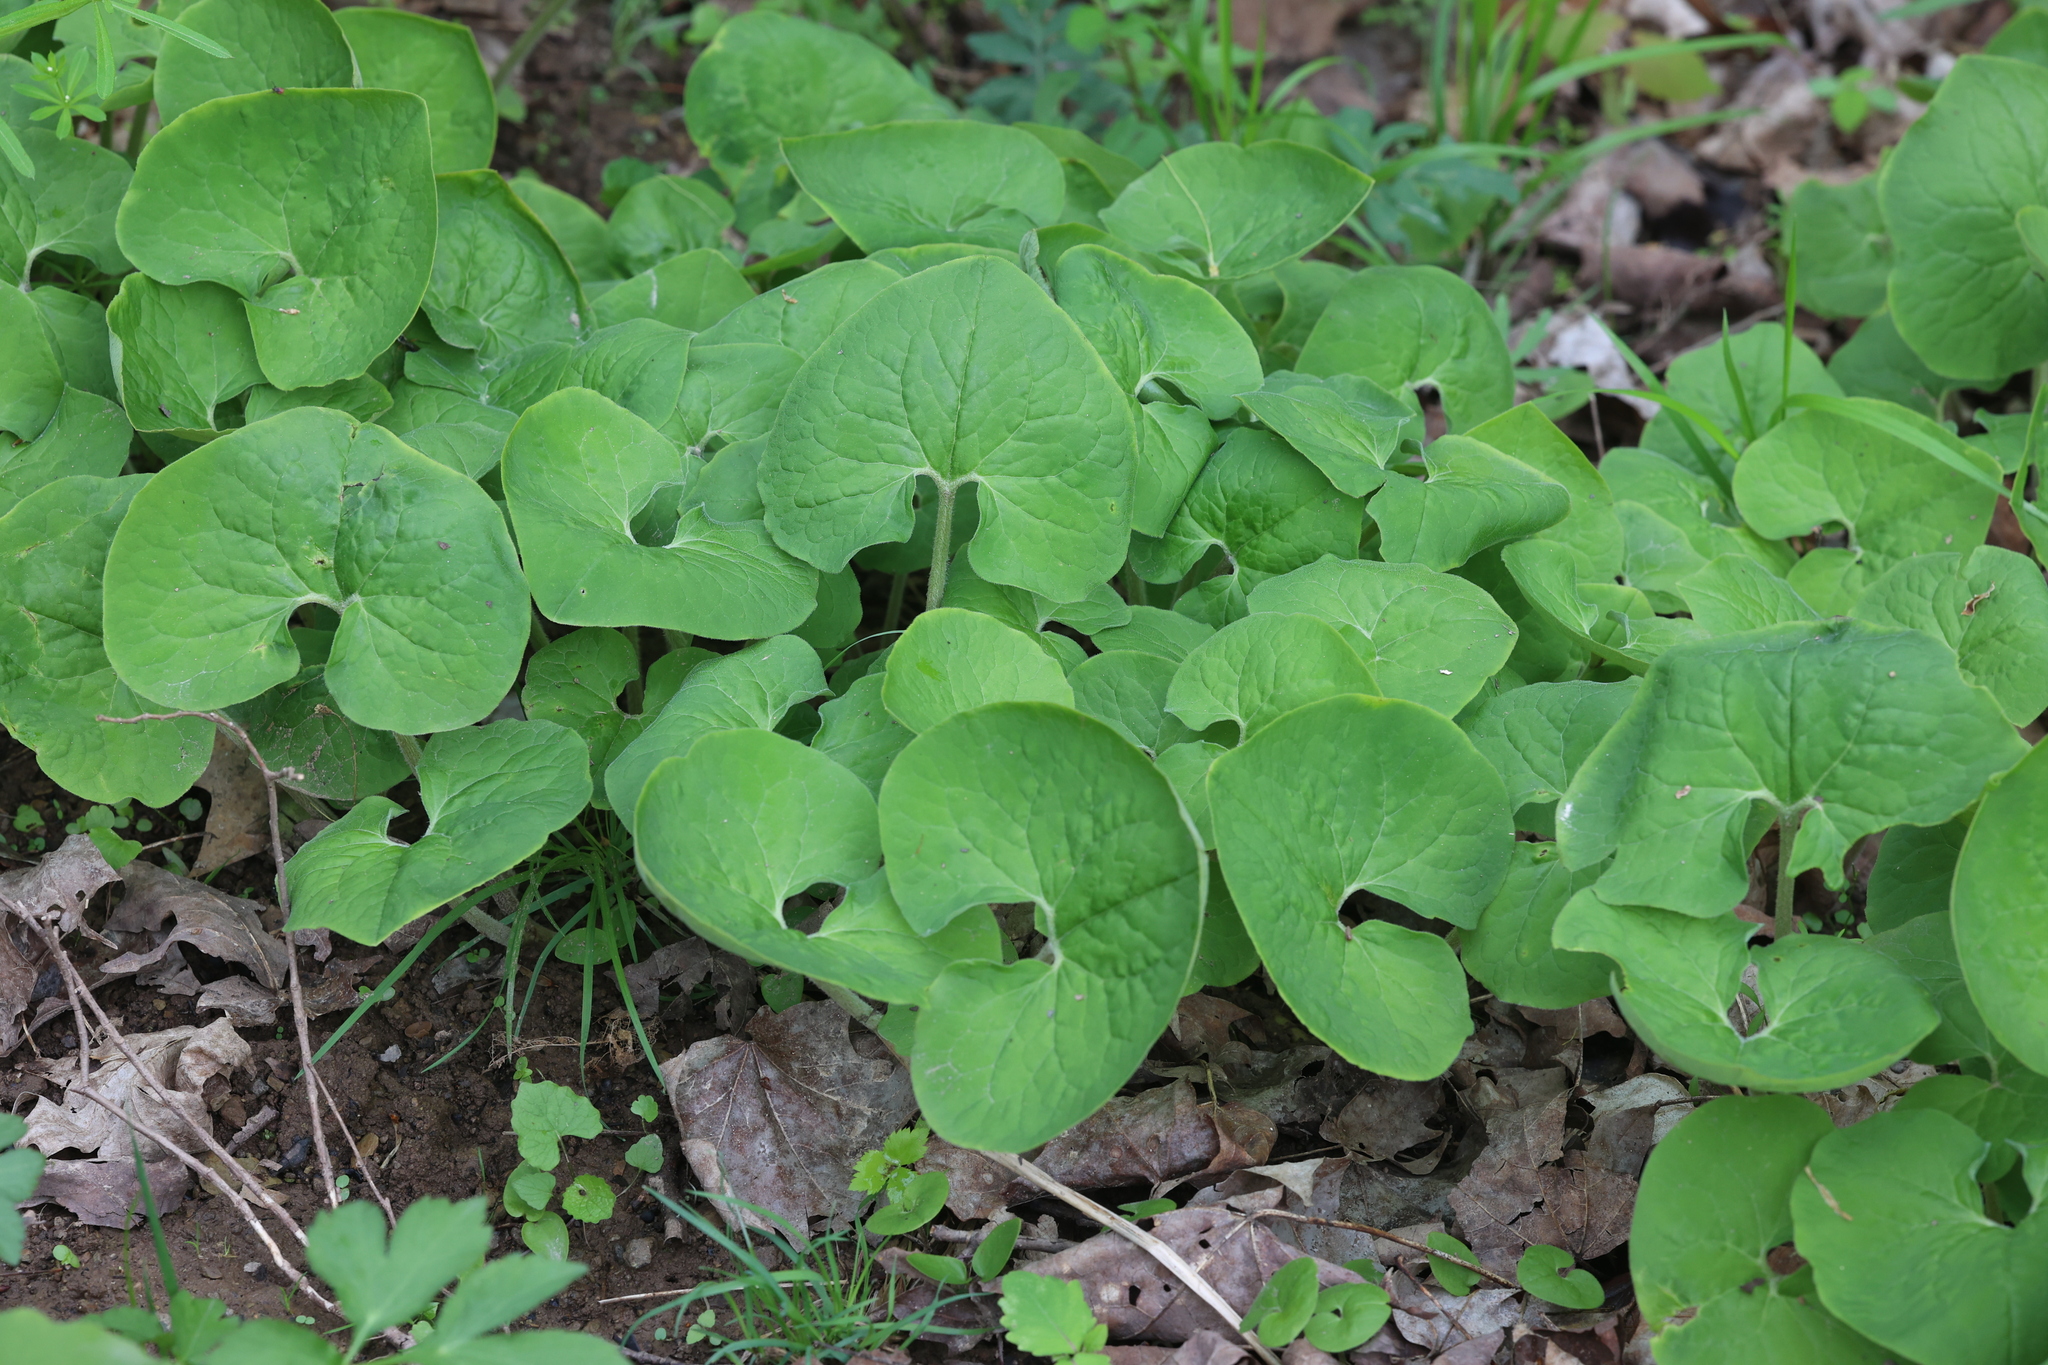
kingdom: Plantae
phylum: Tracheophyta
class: Magnoliopsida
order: Piperales
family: Aristolochiaceae
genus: Asarum
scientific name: Asarum canadense
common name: Wild ginger
